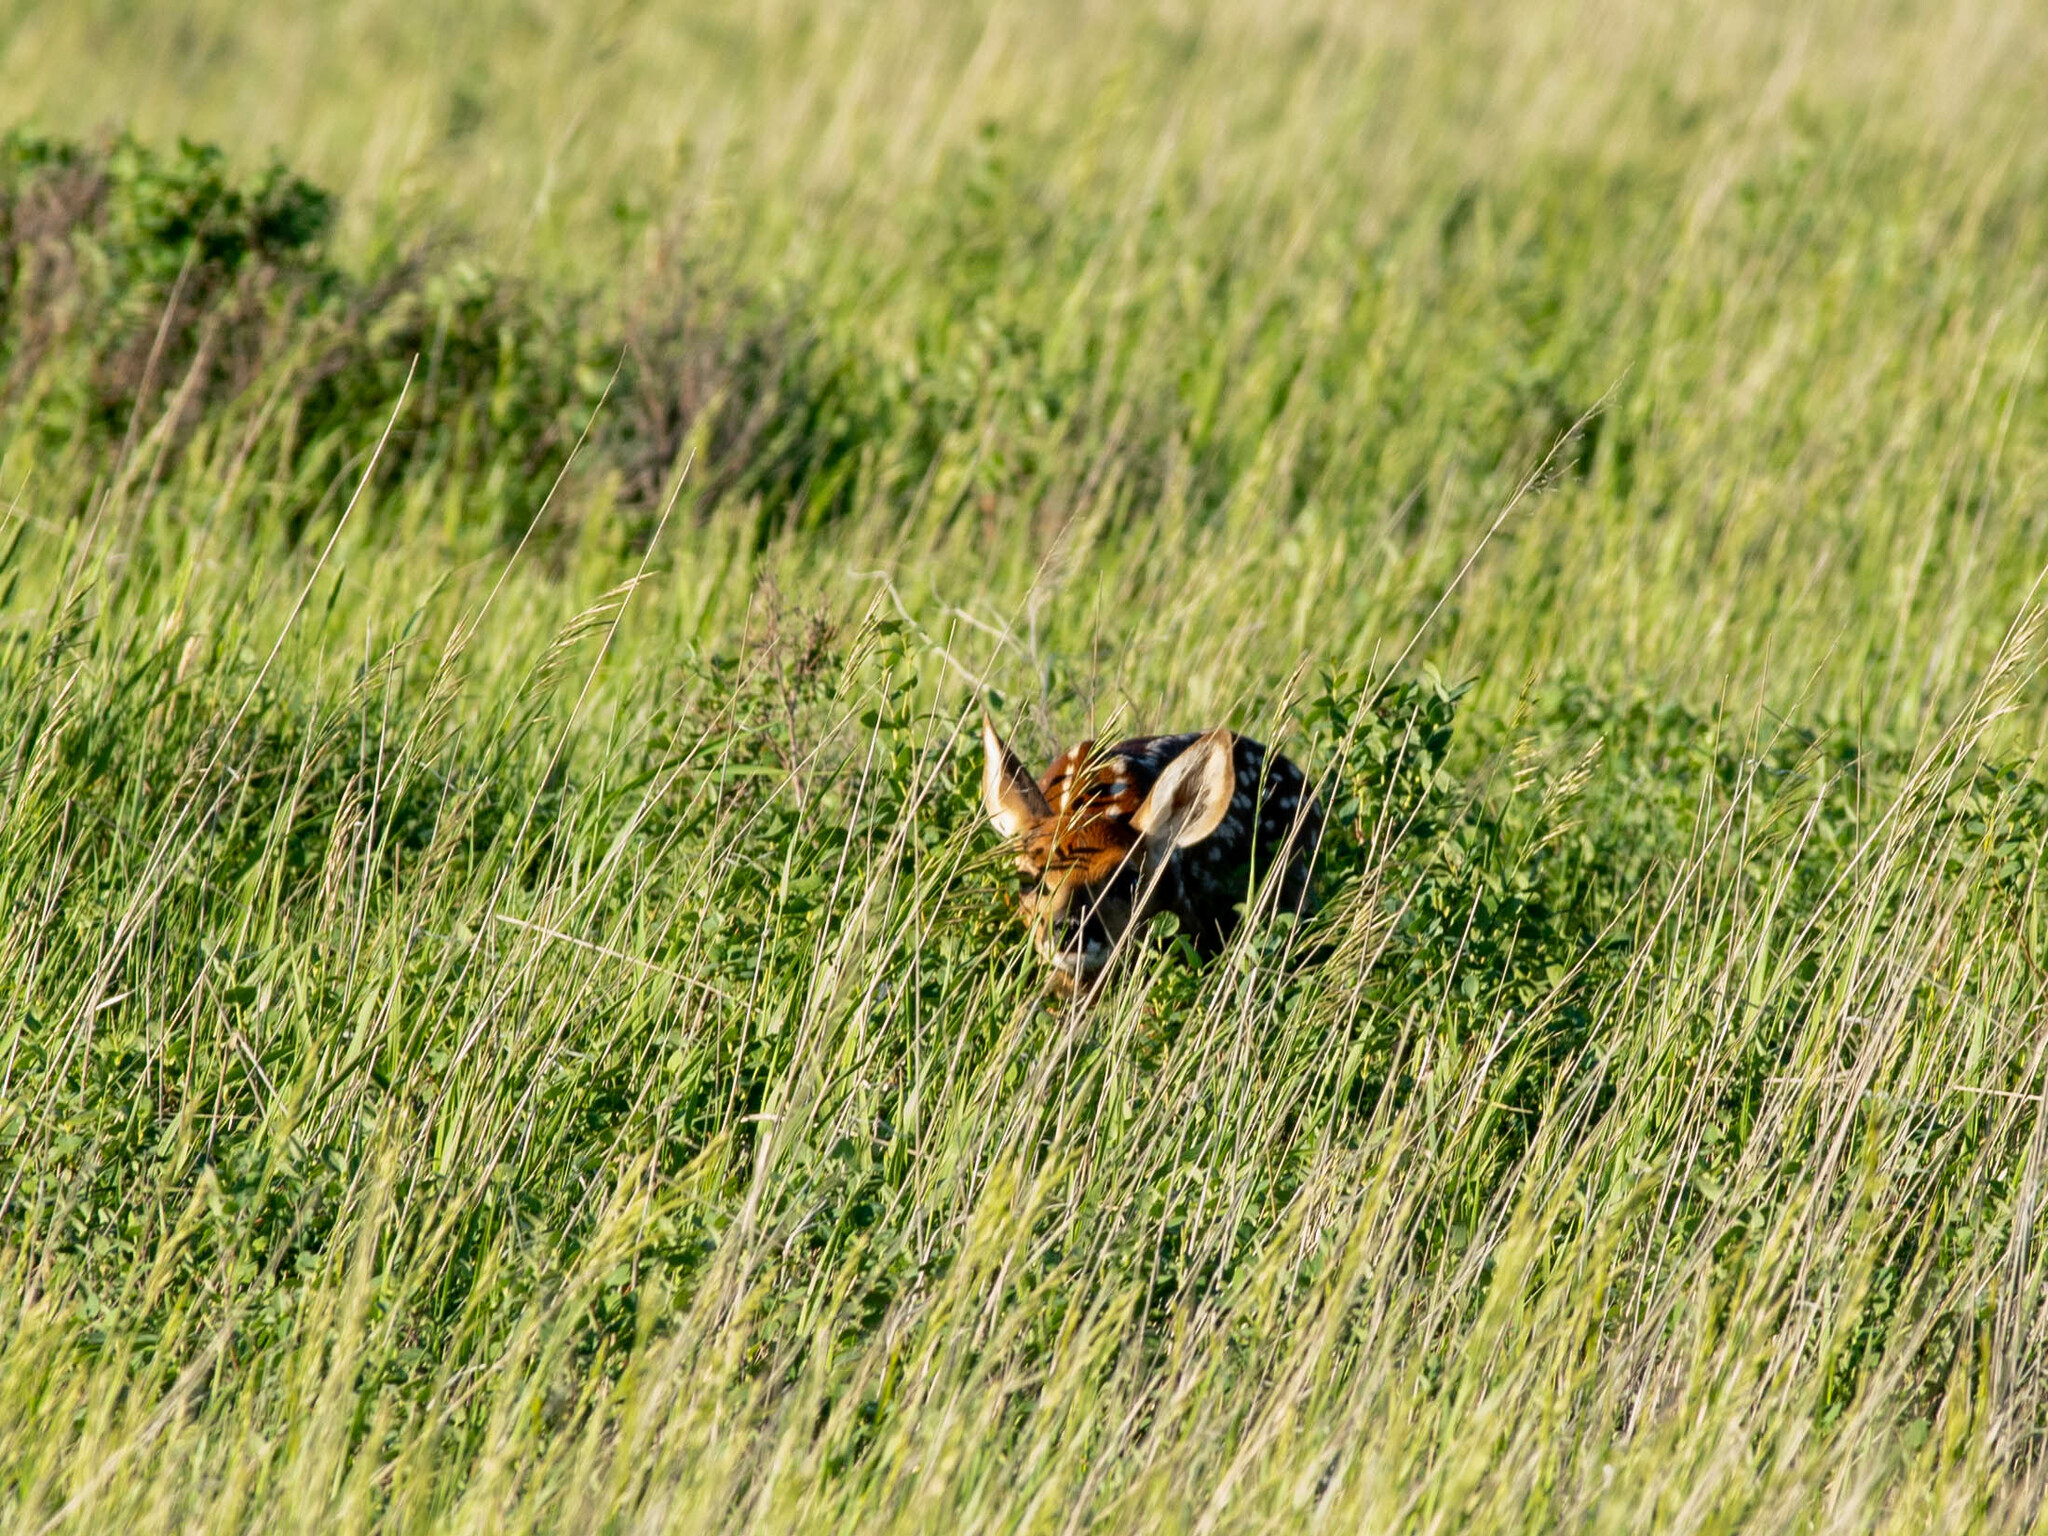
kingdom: Animalia
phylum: Chordata
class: Mammalia
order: Artiodactyla
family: Cervidae
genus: Odocoileus
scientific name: Odocoileus hemionus
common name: Mule deer
